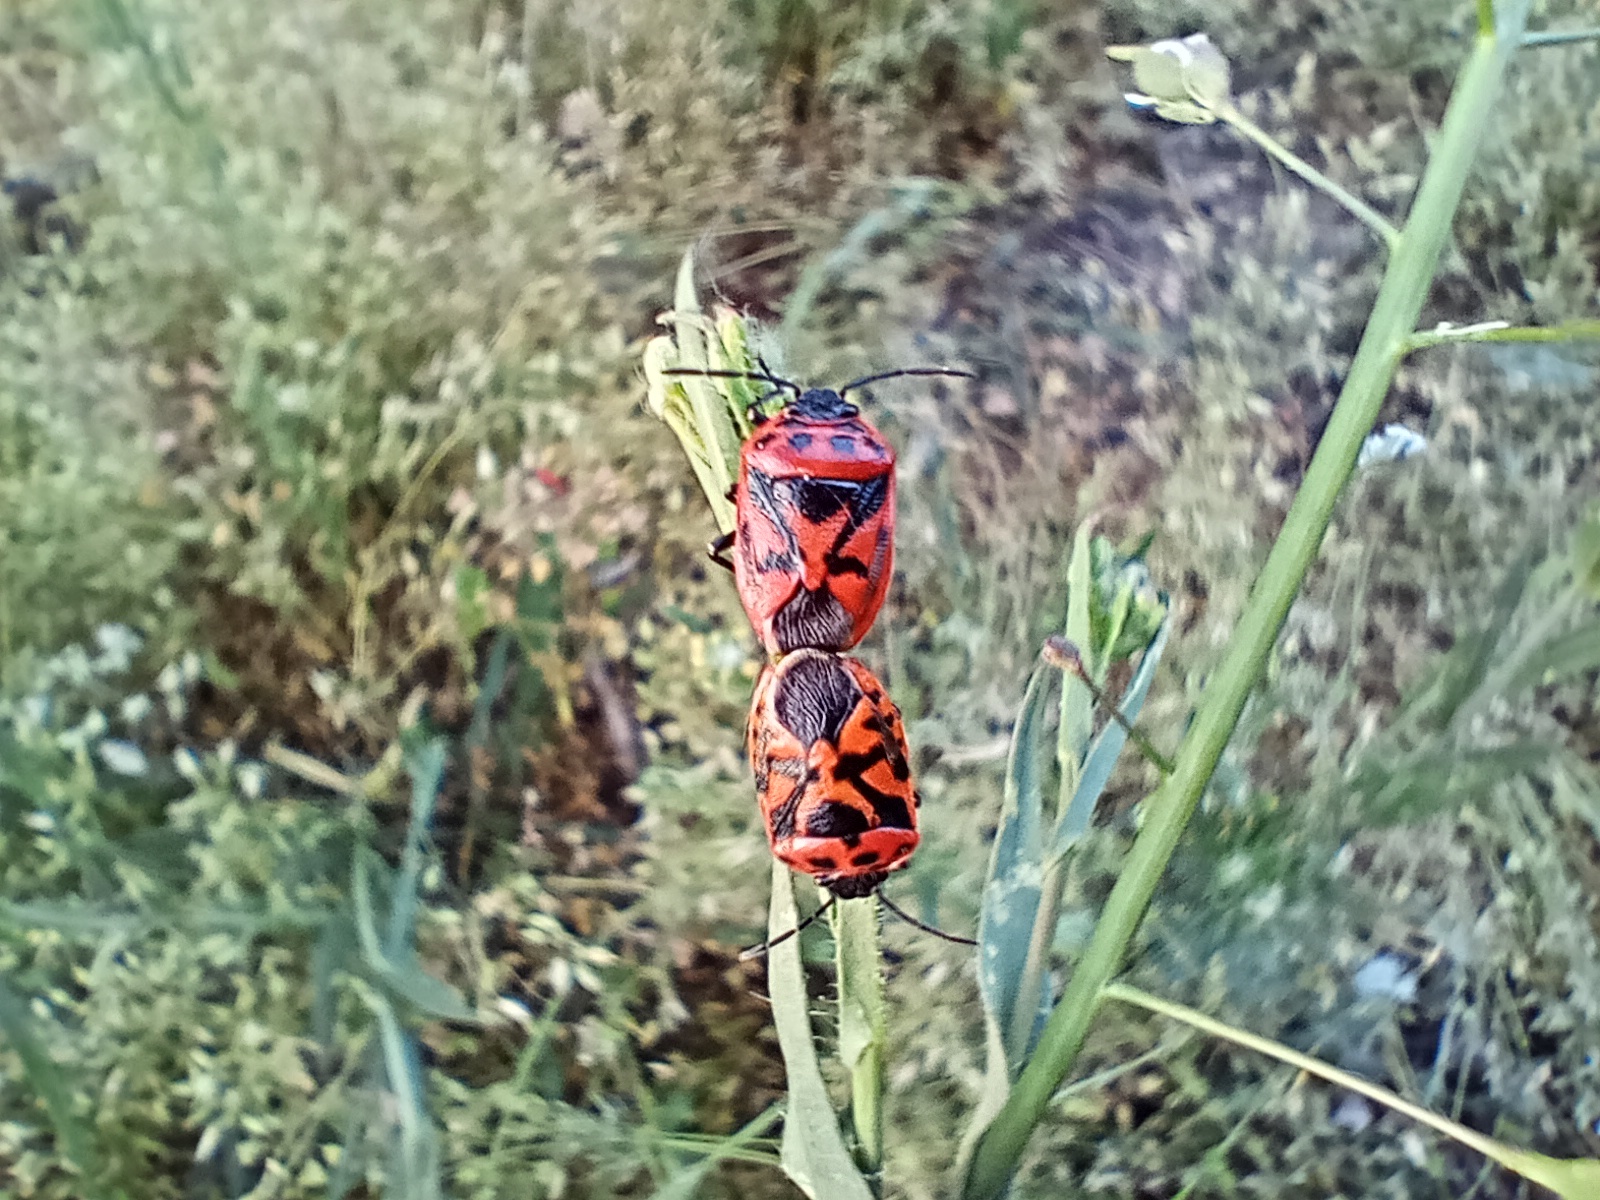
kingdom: Animalia
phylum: Arthropoda
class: Insecta
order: Hemiptera
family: Pentatomidae
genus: Eurydema
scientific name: Eurydema ornata
